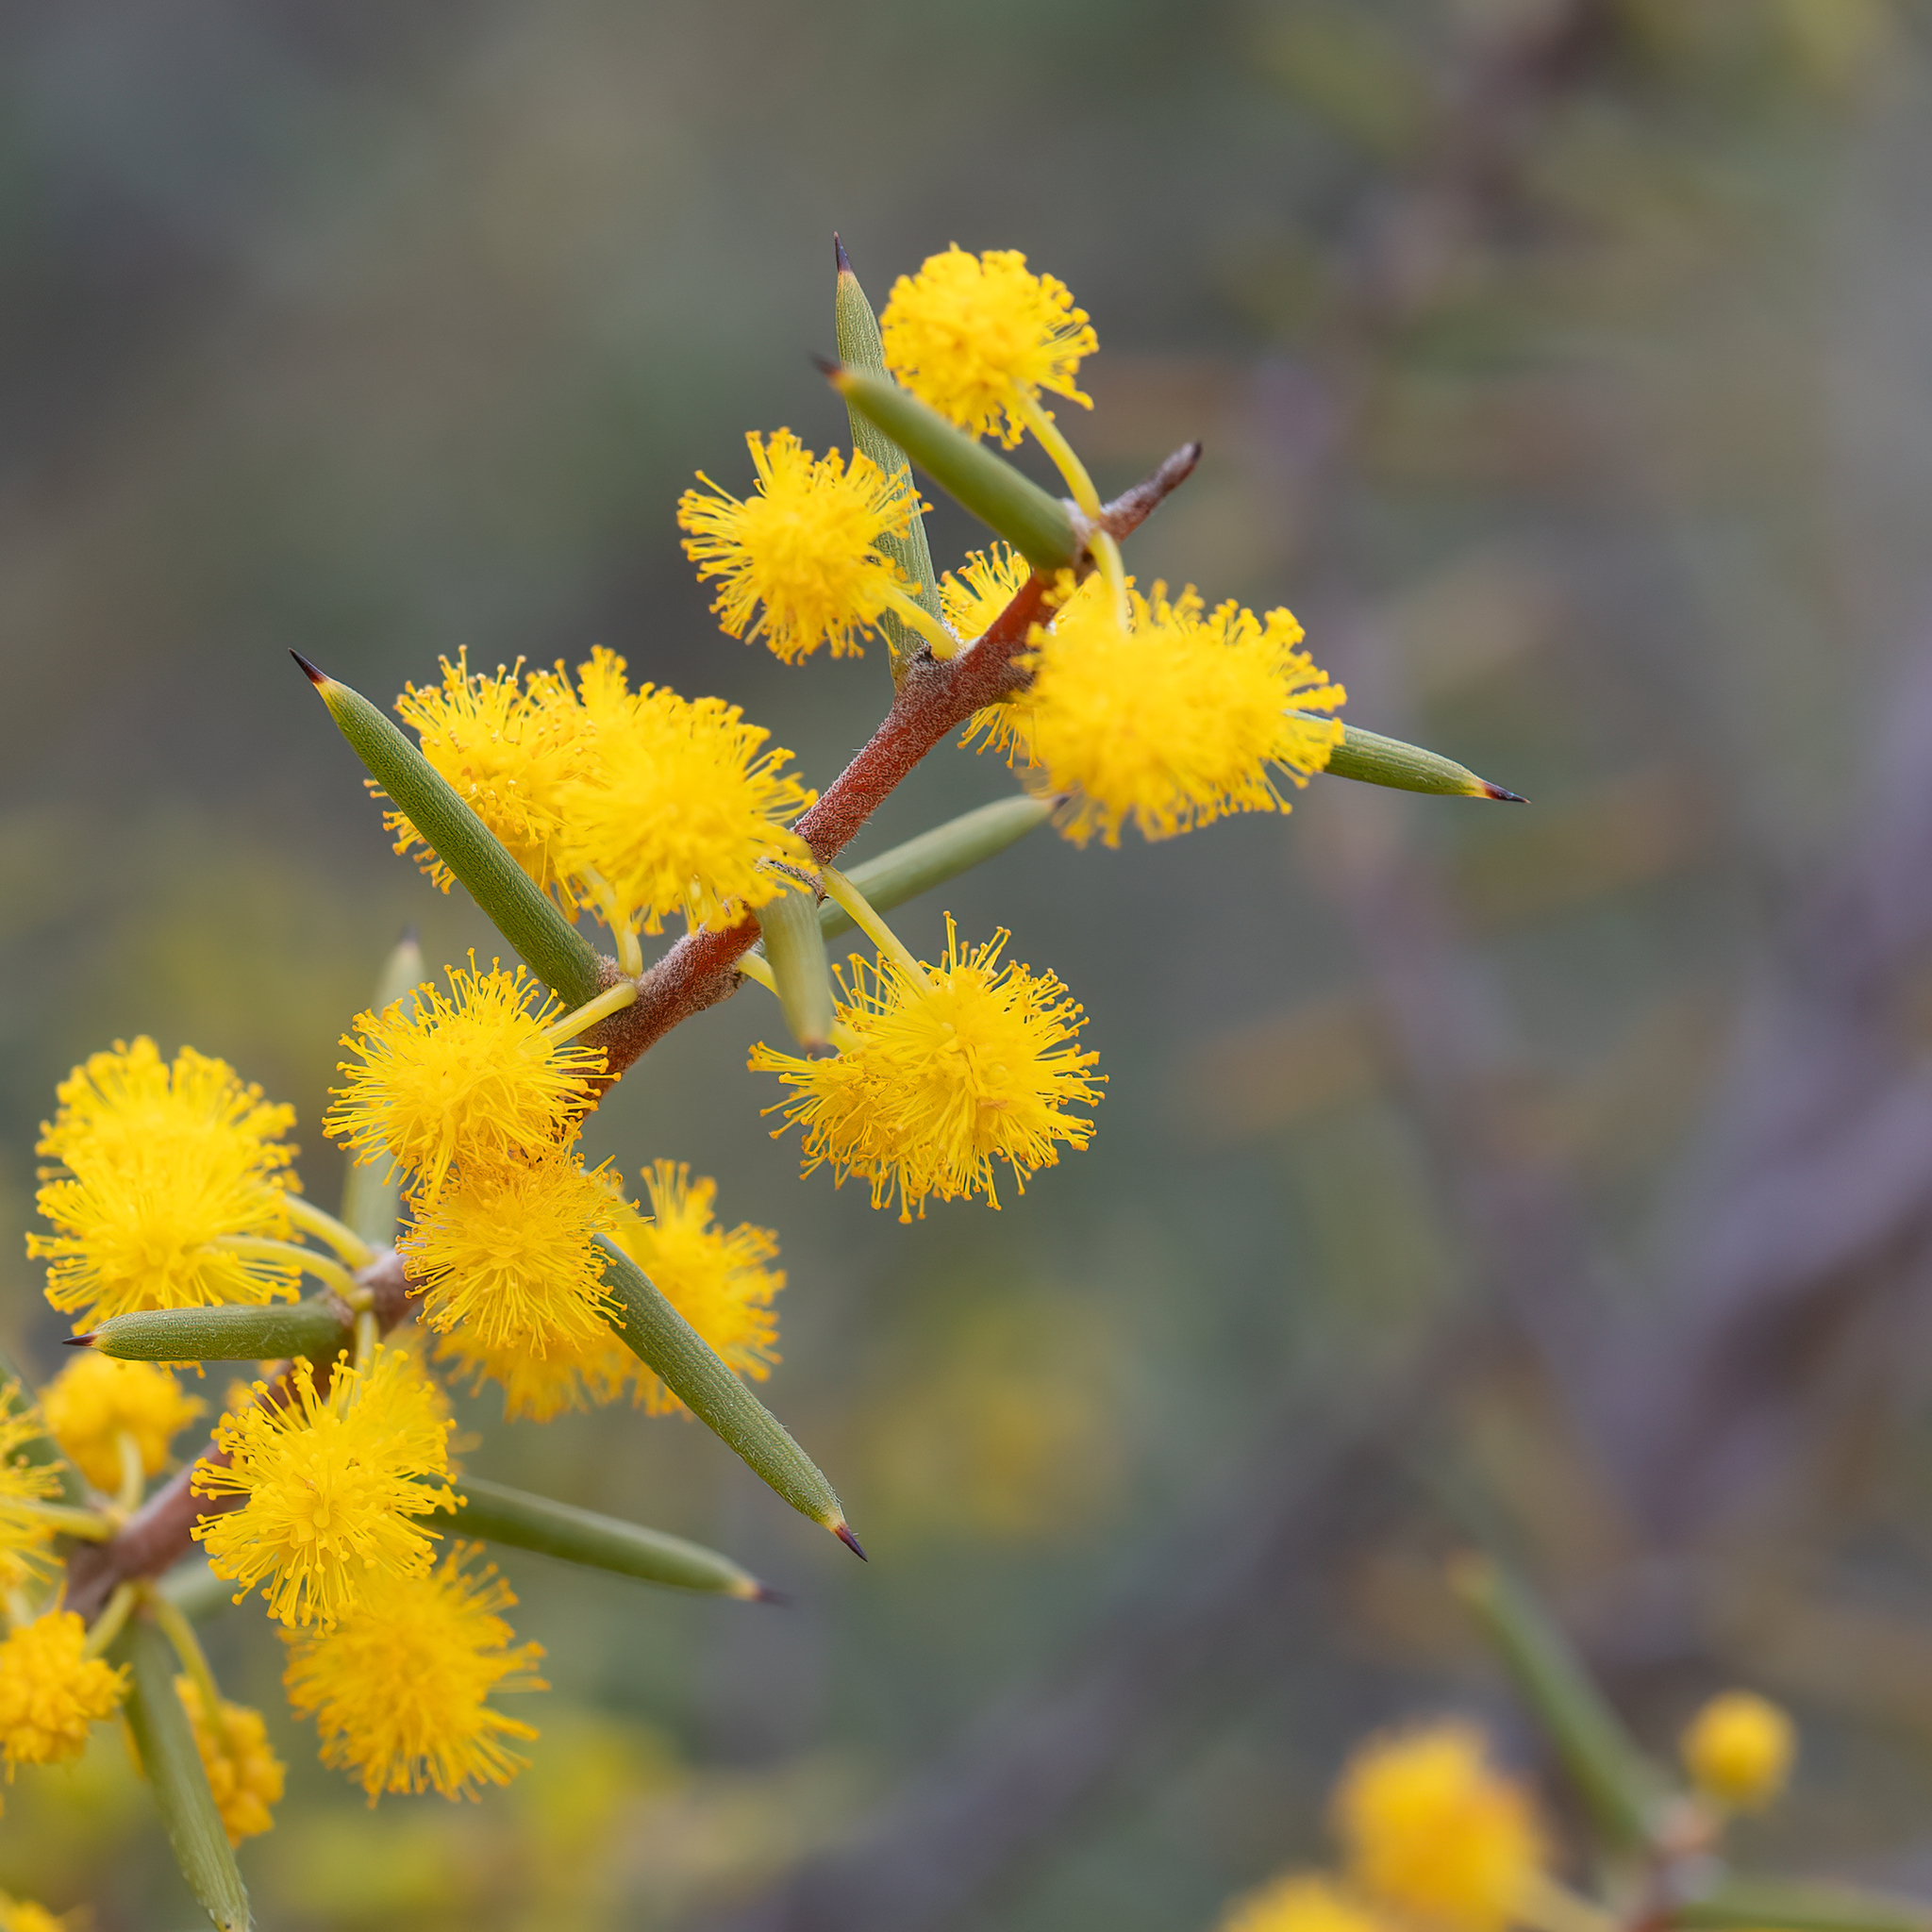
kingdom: Plantae
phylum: Tracheophyta
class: Magnoliopsida
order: Fabales
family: Fabaceae
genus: Acacia
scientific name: Acacia nyssophylla
